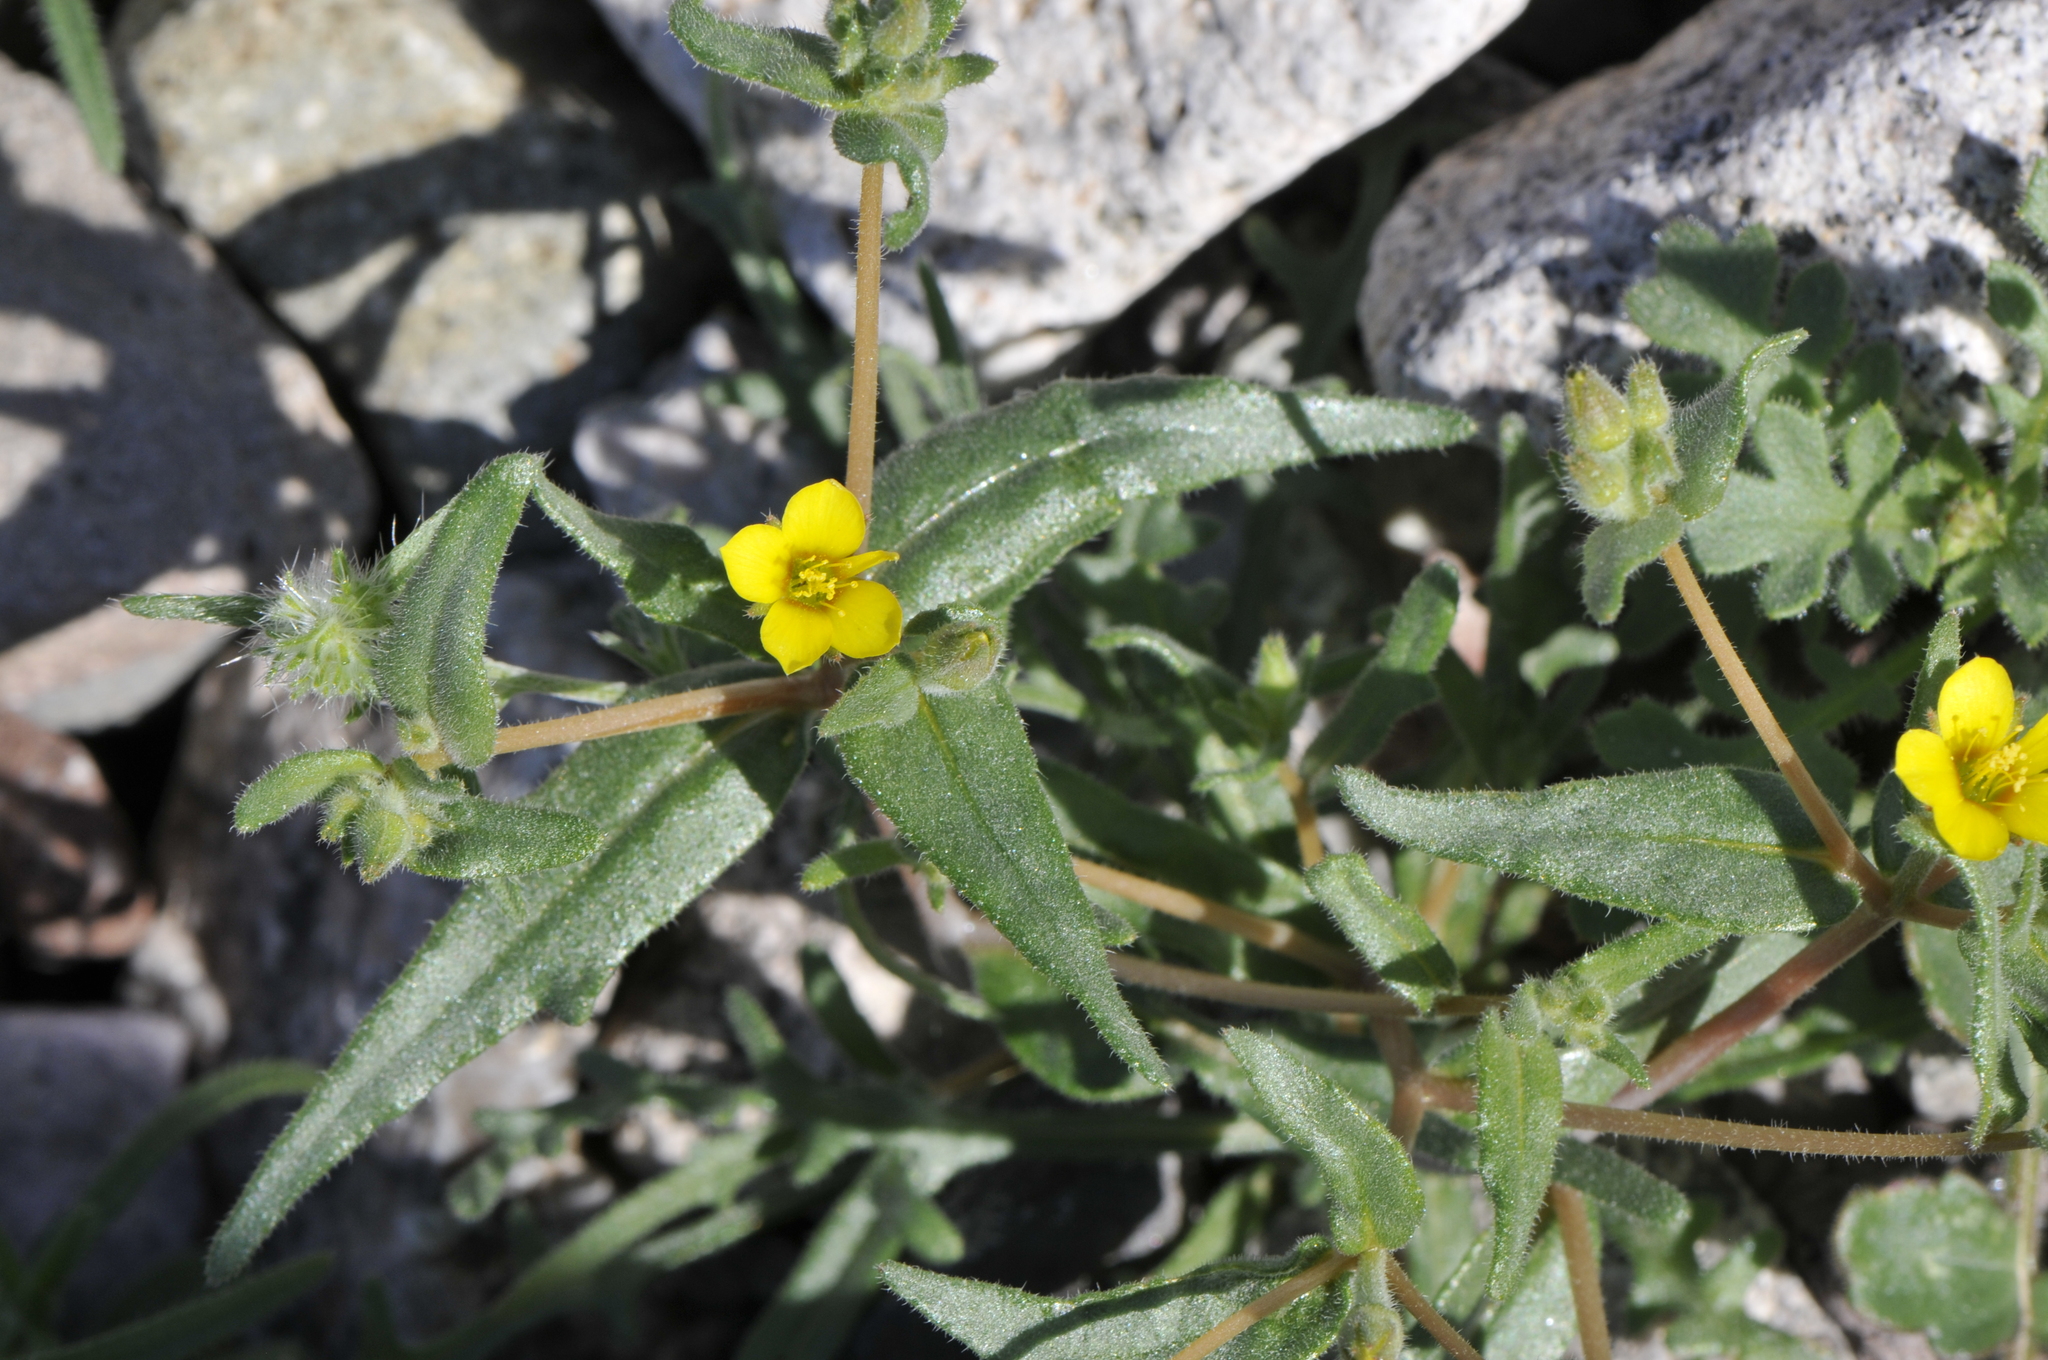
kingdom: Plantae
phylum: Tracheophyta
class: Magnoliopsida
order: Cornales
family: Loasaceae
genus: Mentzelia
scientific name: Mentzelia albicaulis
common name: White-stem blazingstar
